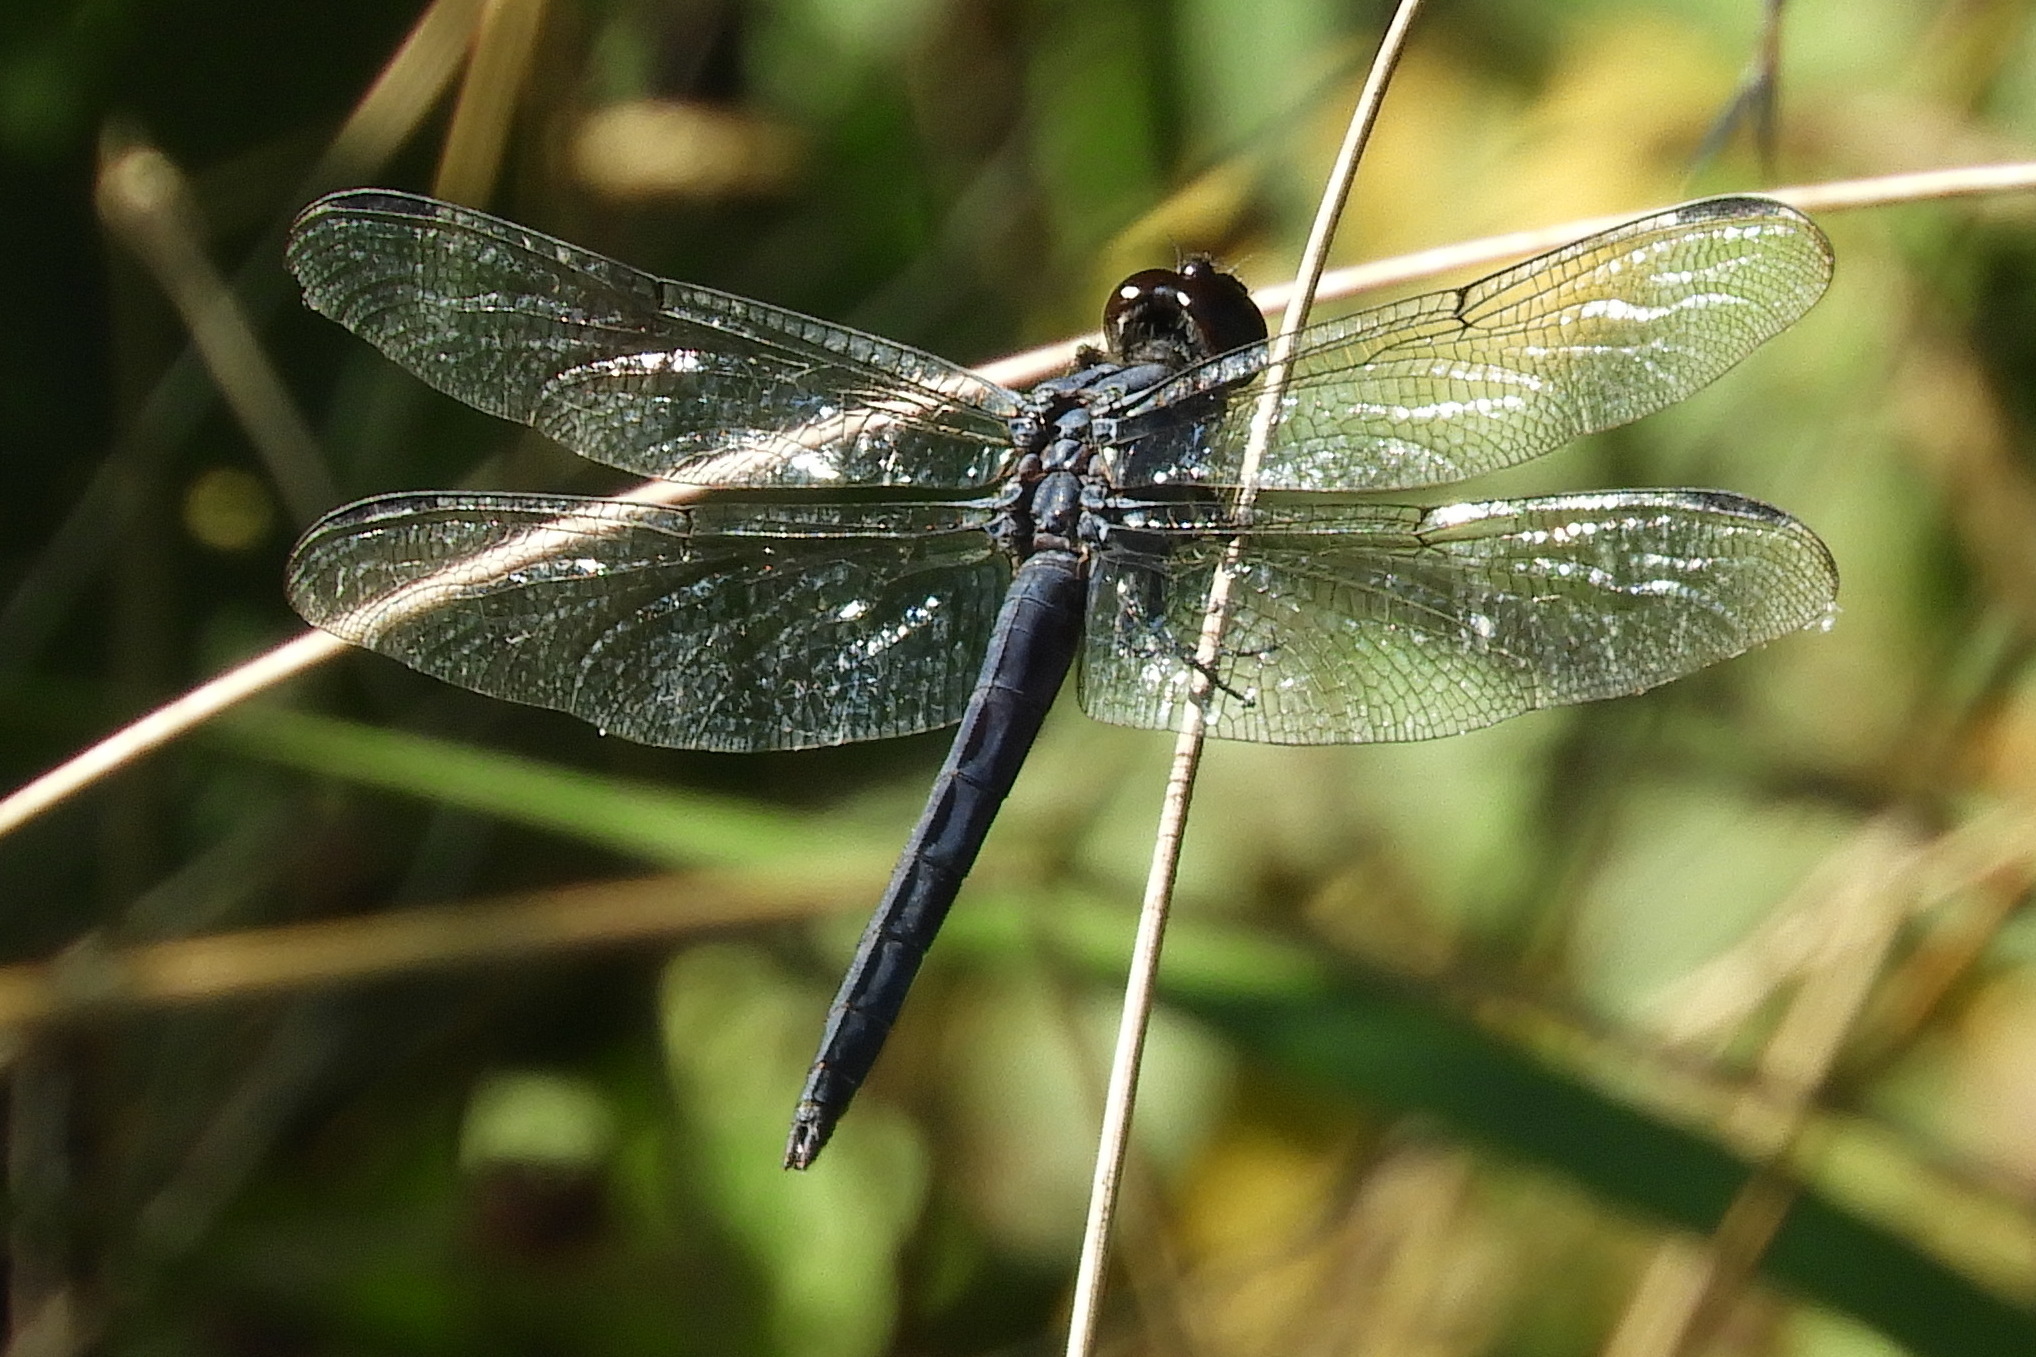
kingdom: Animalia
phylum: Arthropoda
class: Insecta
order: Odonata
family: Libellulidae
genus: Libellula
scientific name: Libellula incesta
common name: Slaty skimmer
